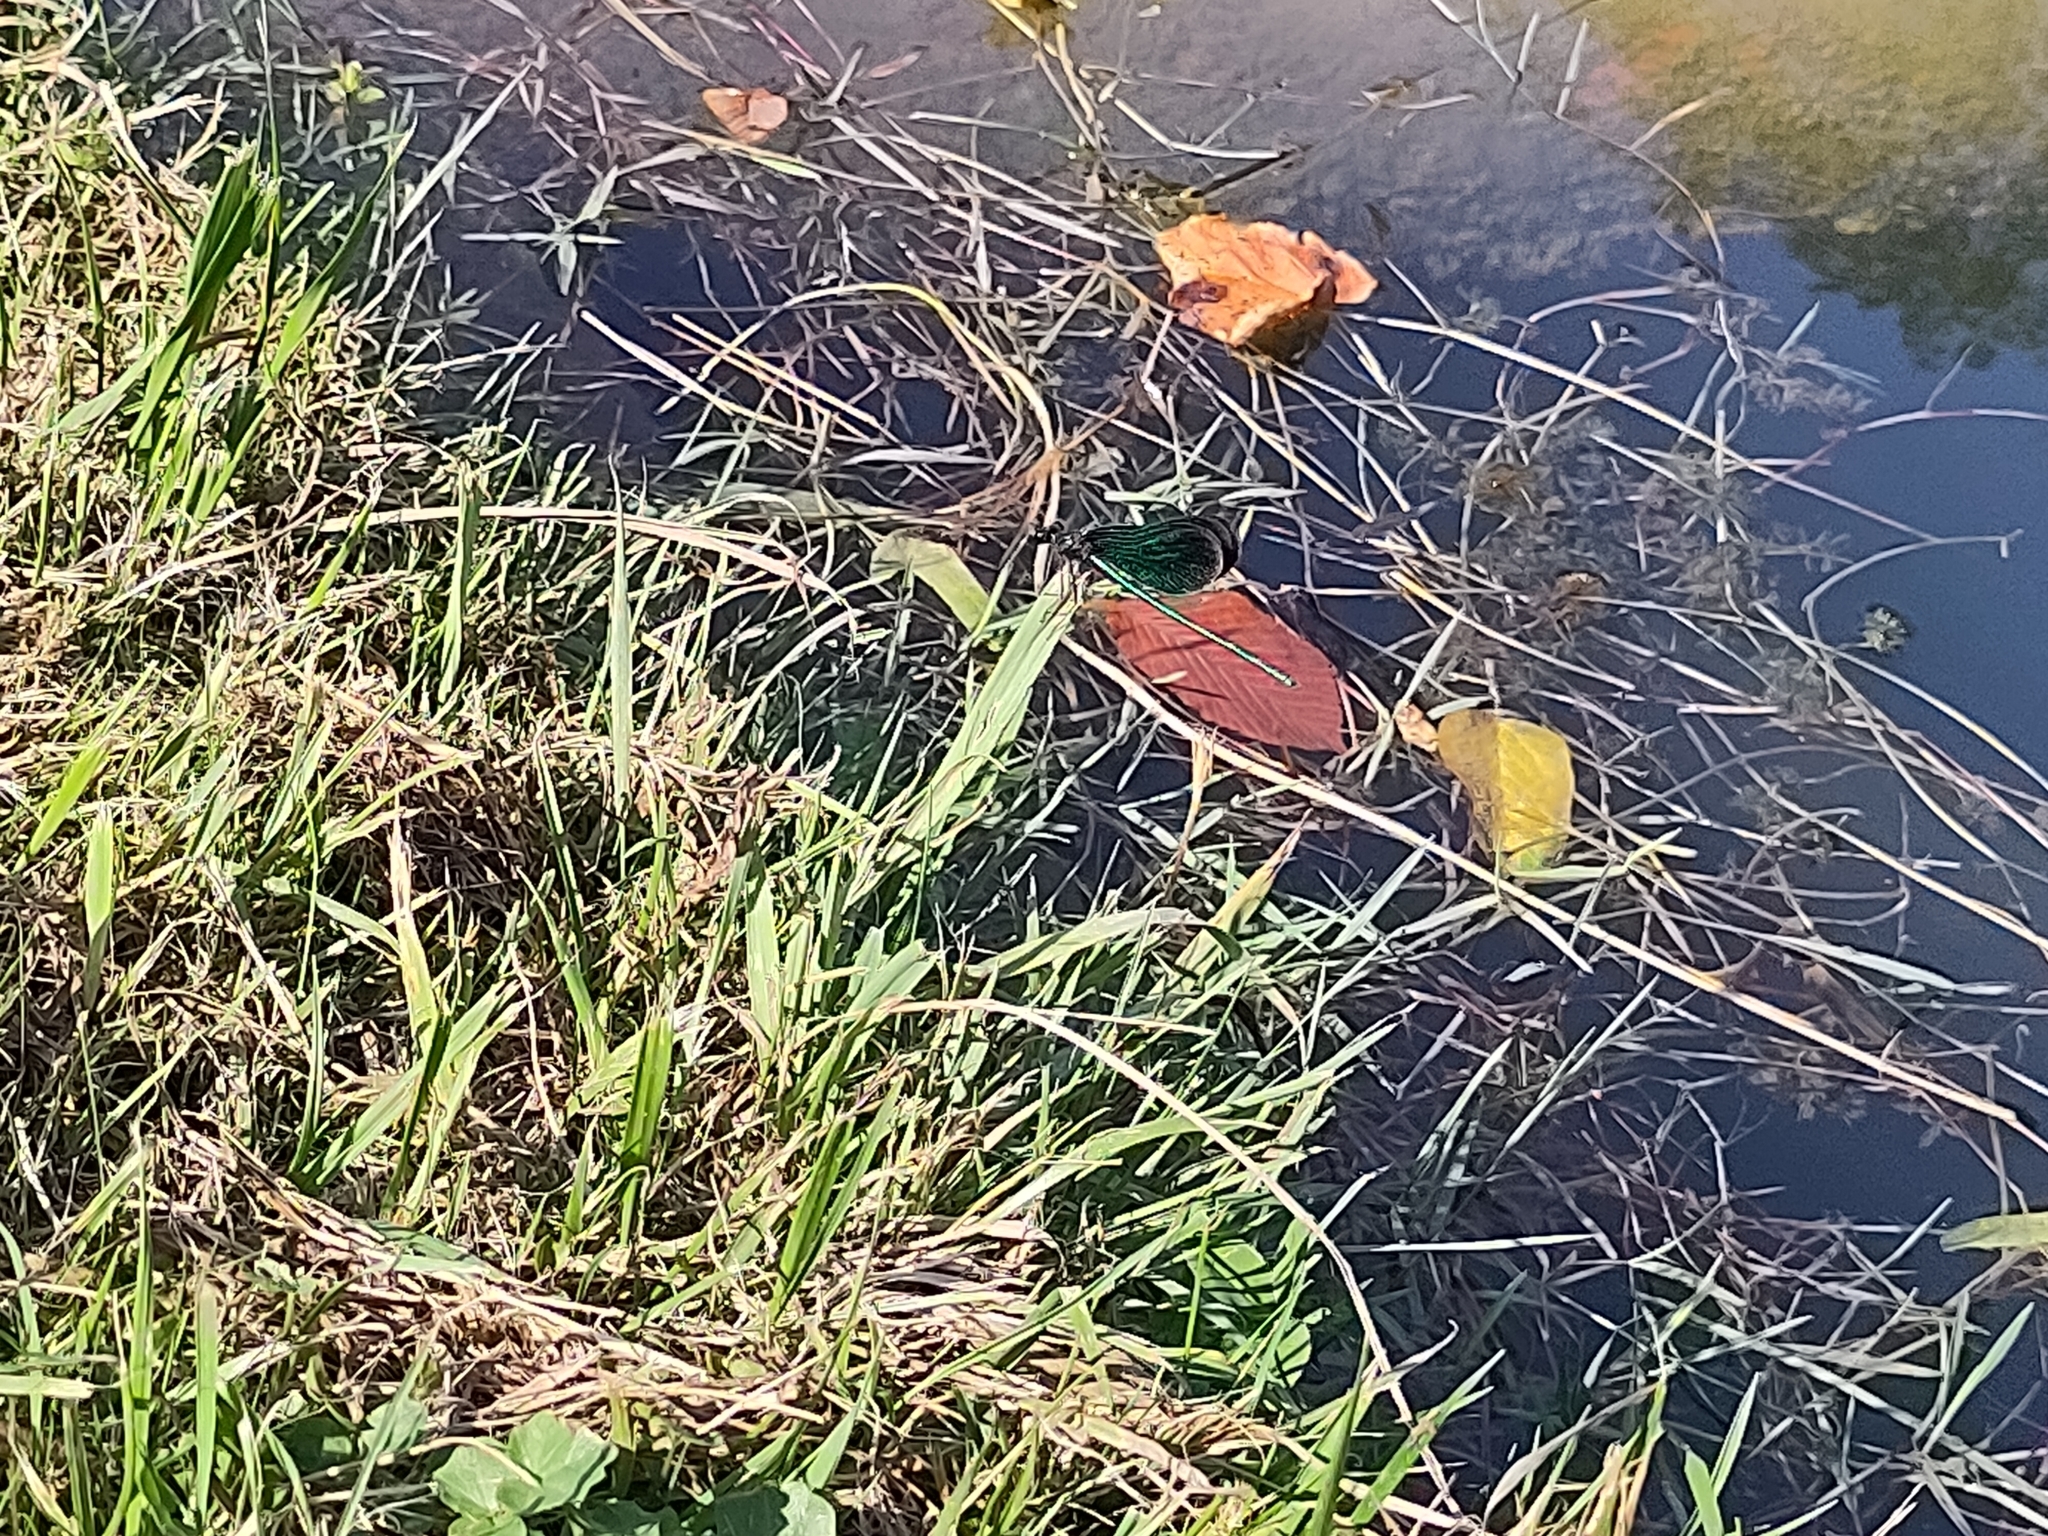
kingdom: Animalia
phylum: Arthropoda
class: Insecta
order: Odonata
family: Calopterygidae
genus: Calopteryx
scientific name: Calopteryx virgo
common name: Beautiful demoiselle
